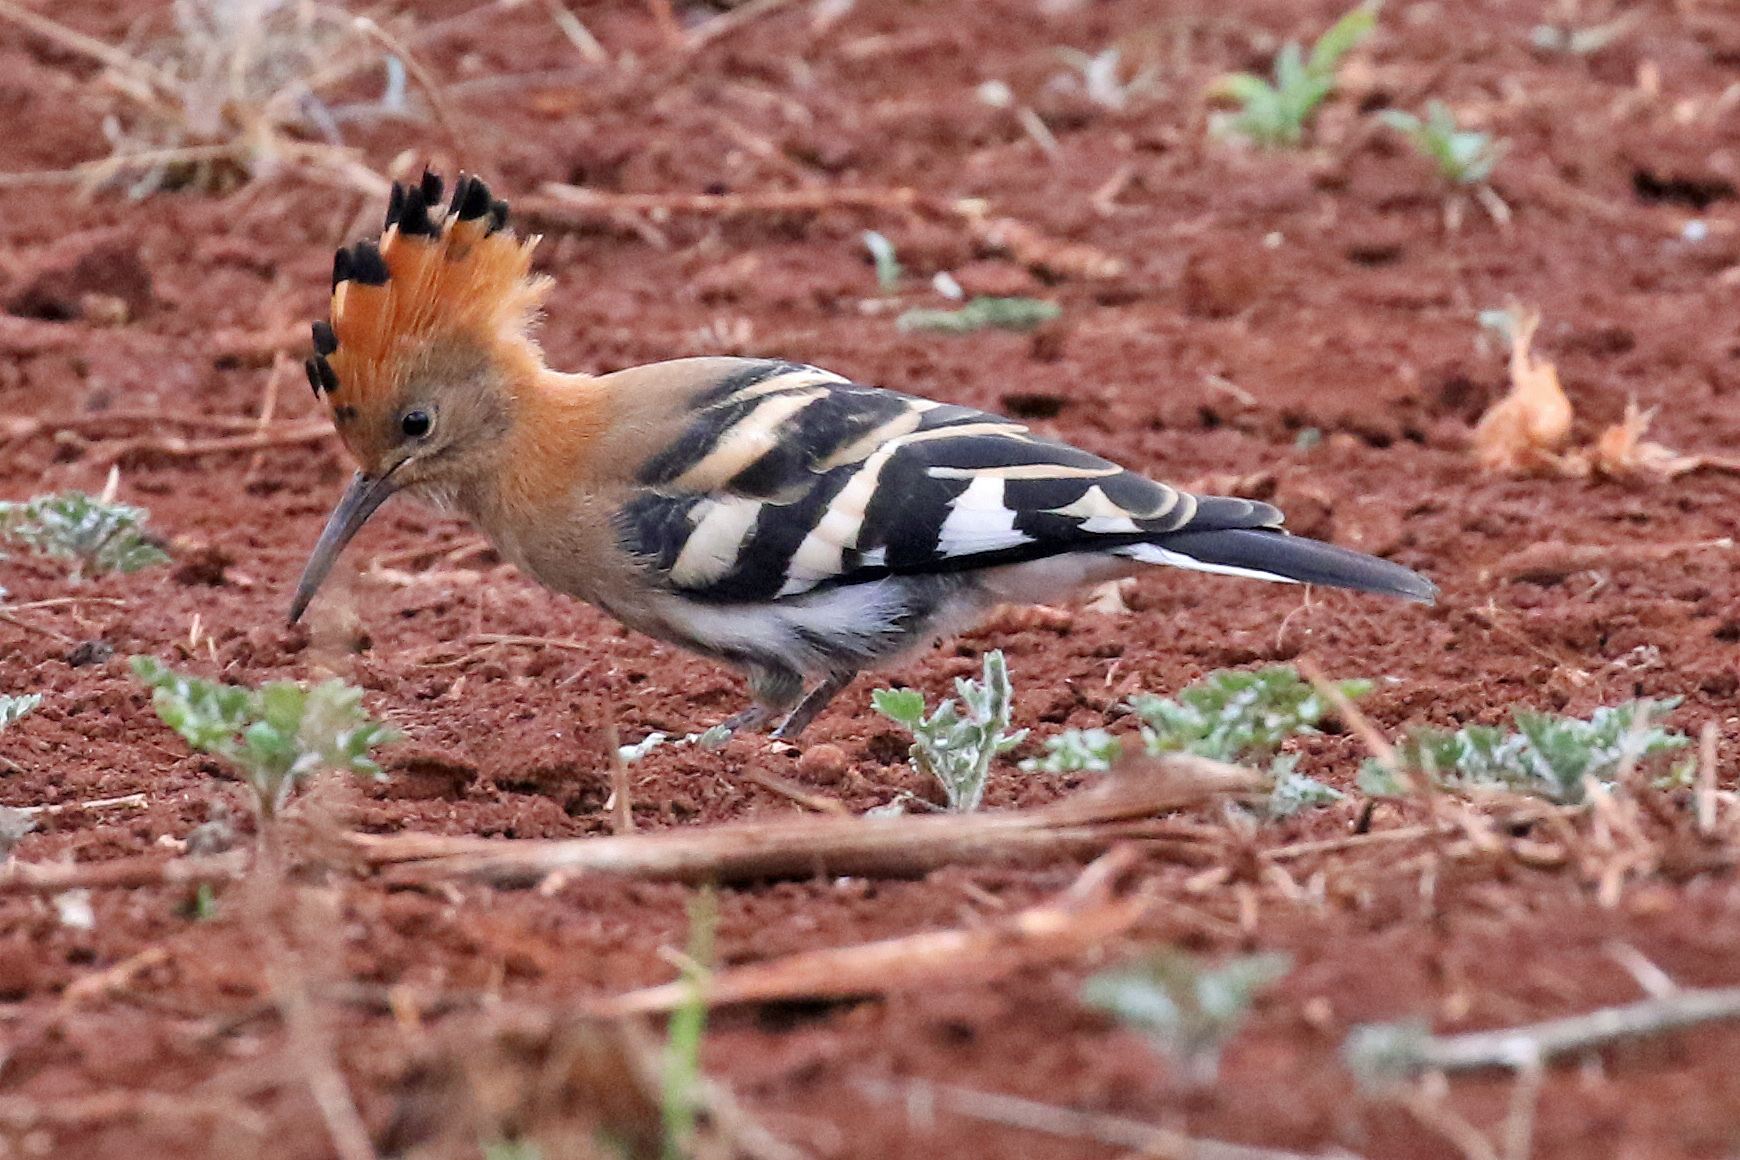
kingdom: Animalia
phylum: Chordata
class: Aves
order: Bucerotiformes
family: Upupidae
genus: Upupa
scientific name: Upupa africana
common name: African hoopoe
